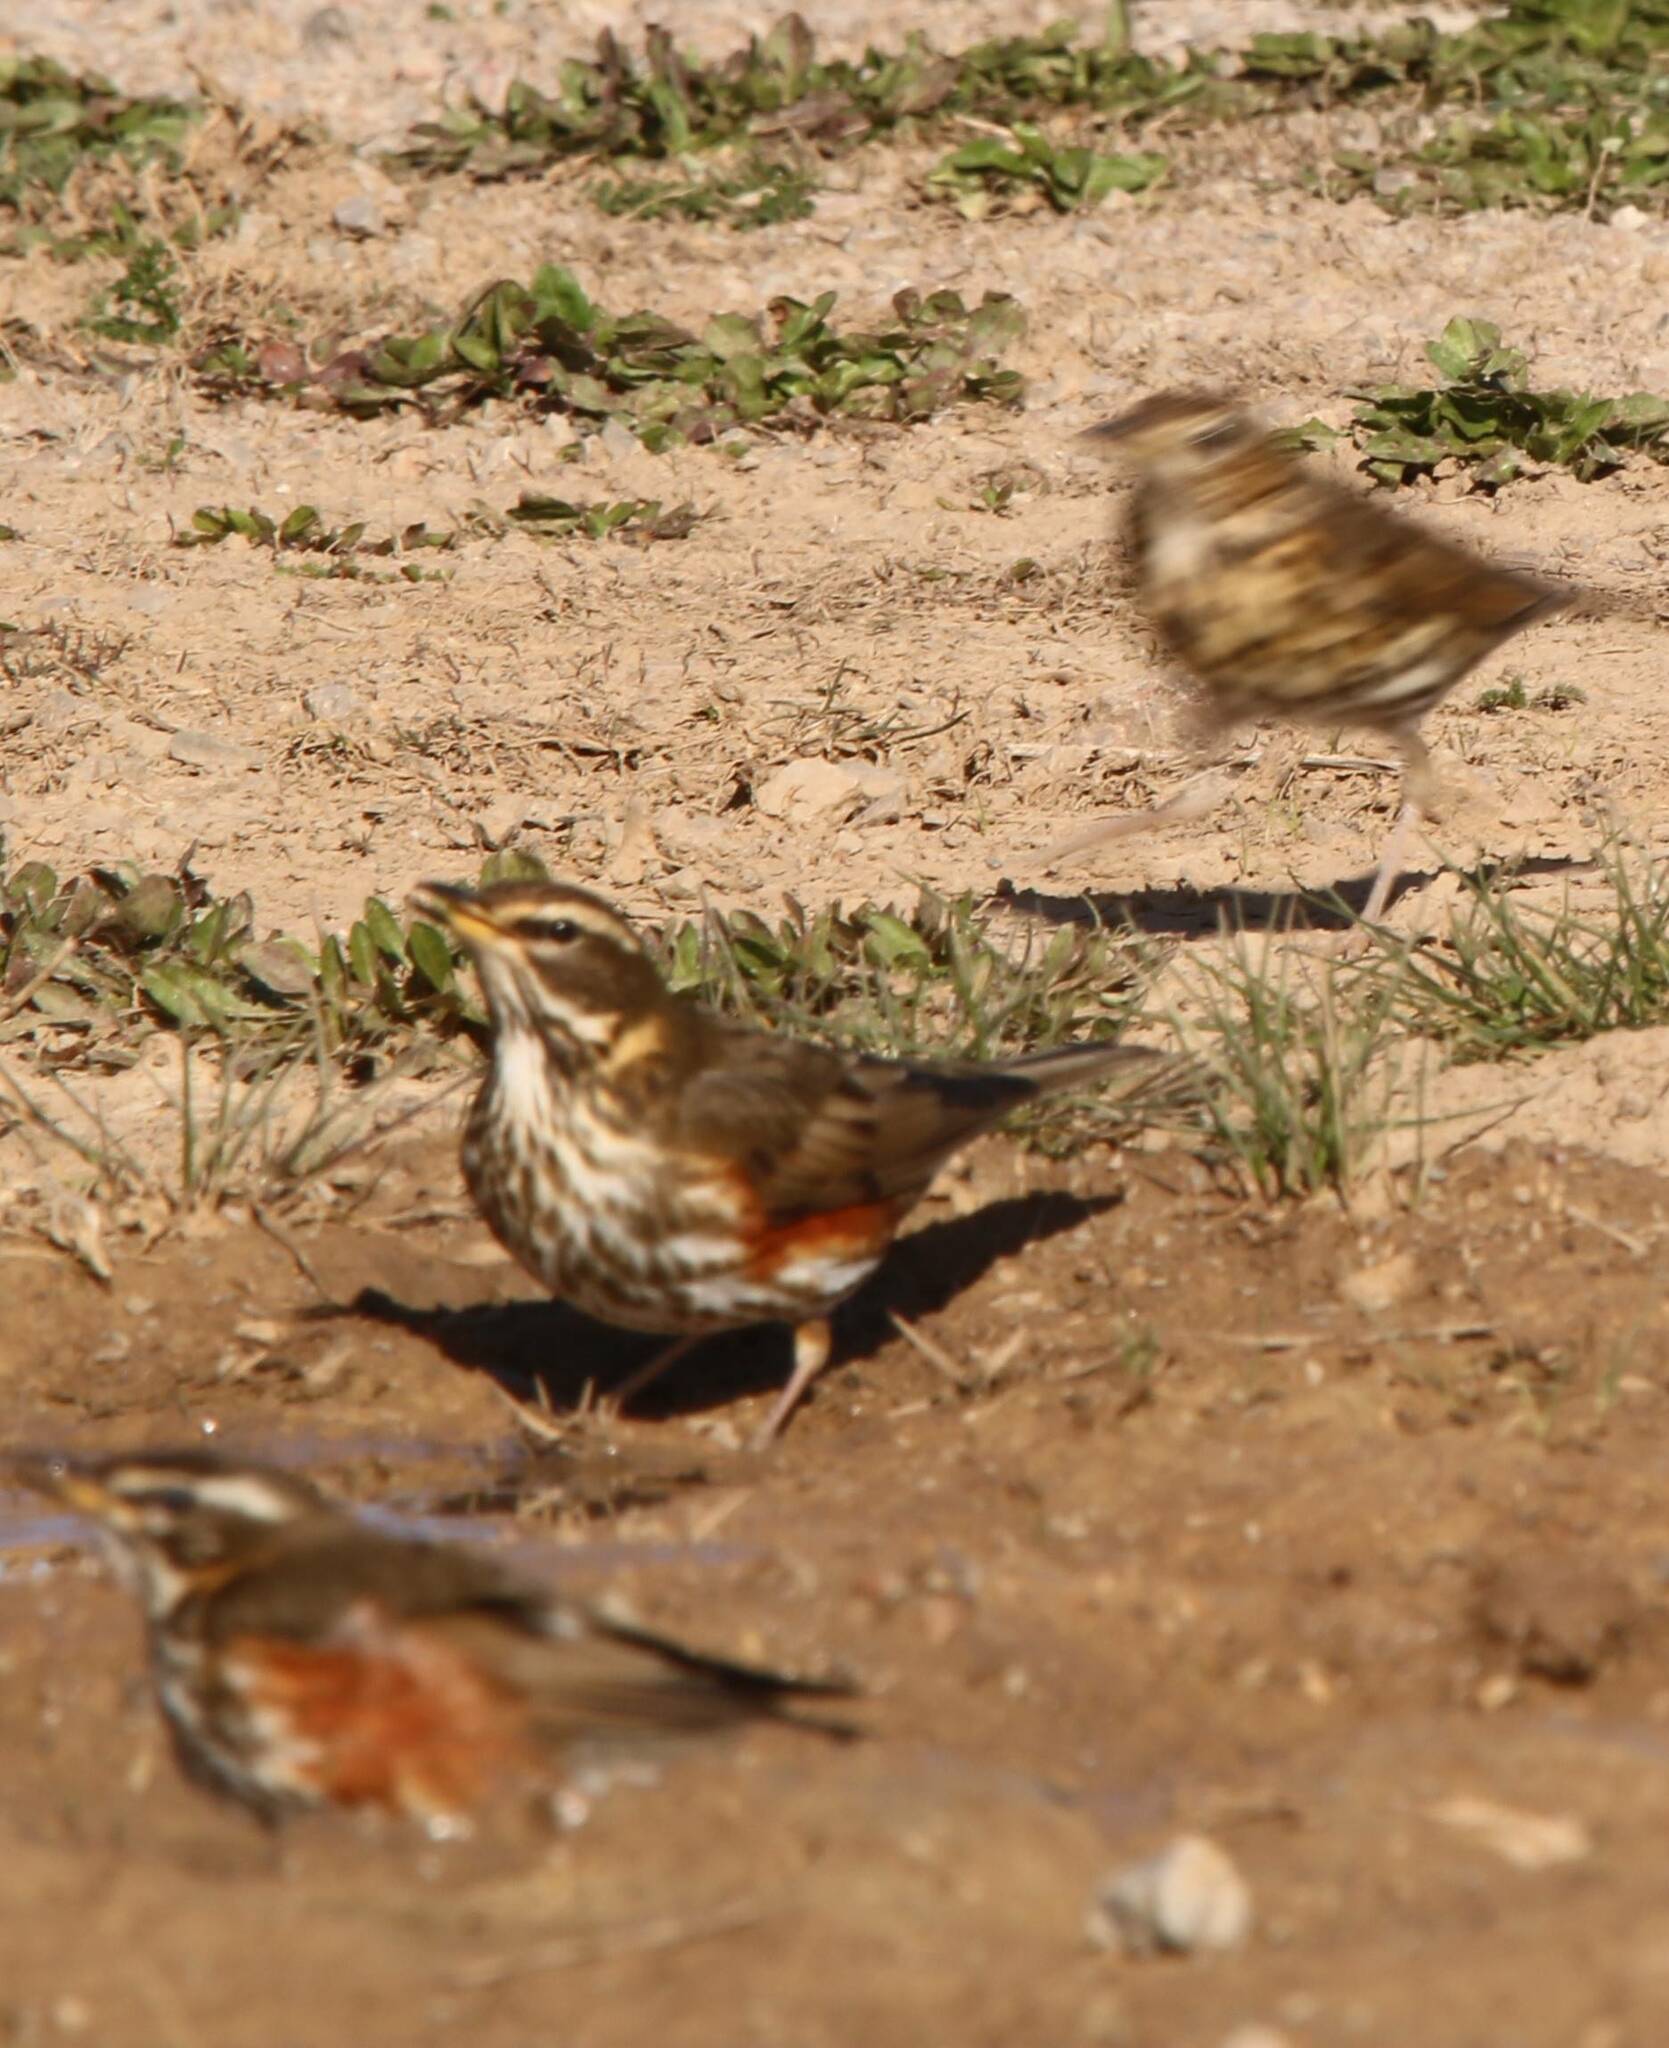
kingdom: Animalia
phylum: Chordata
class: Aves
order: Passeriformes
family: Turdidae
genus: Turdus
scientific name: Turdus iliacus
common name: Redwing
